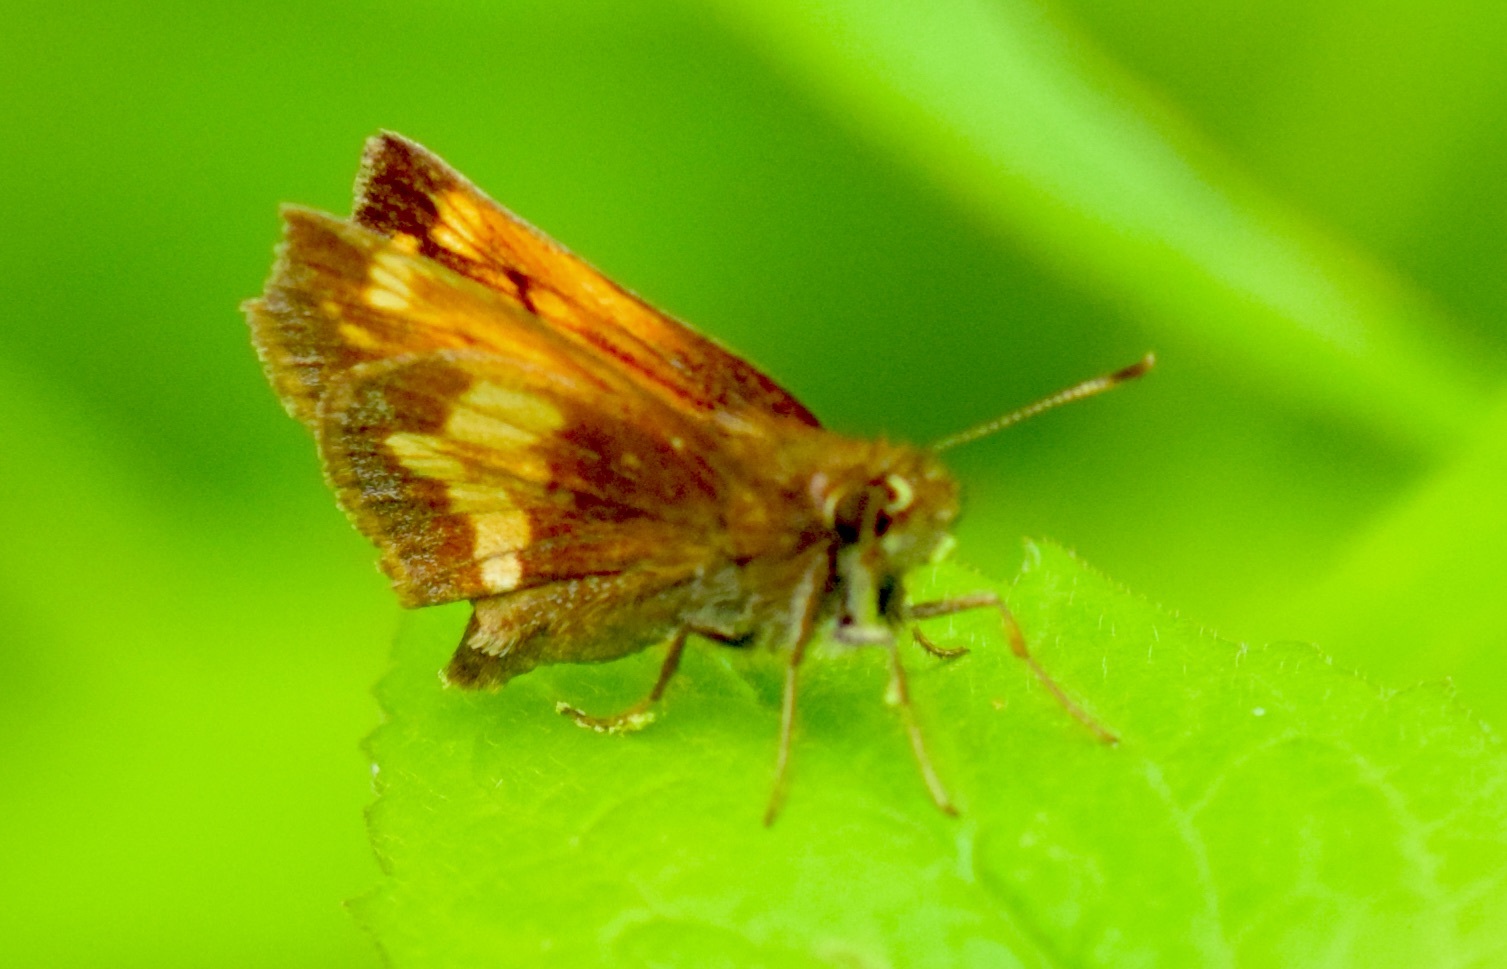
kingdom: Animalia
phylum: Arthropoda
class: Insecta
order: Lepidoptera
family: Hesperiidae
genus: Lon
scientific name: Lon hobomok
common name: Hobomok skipper
